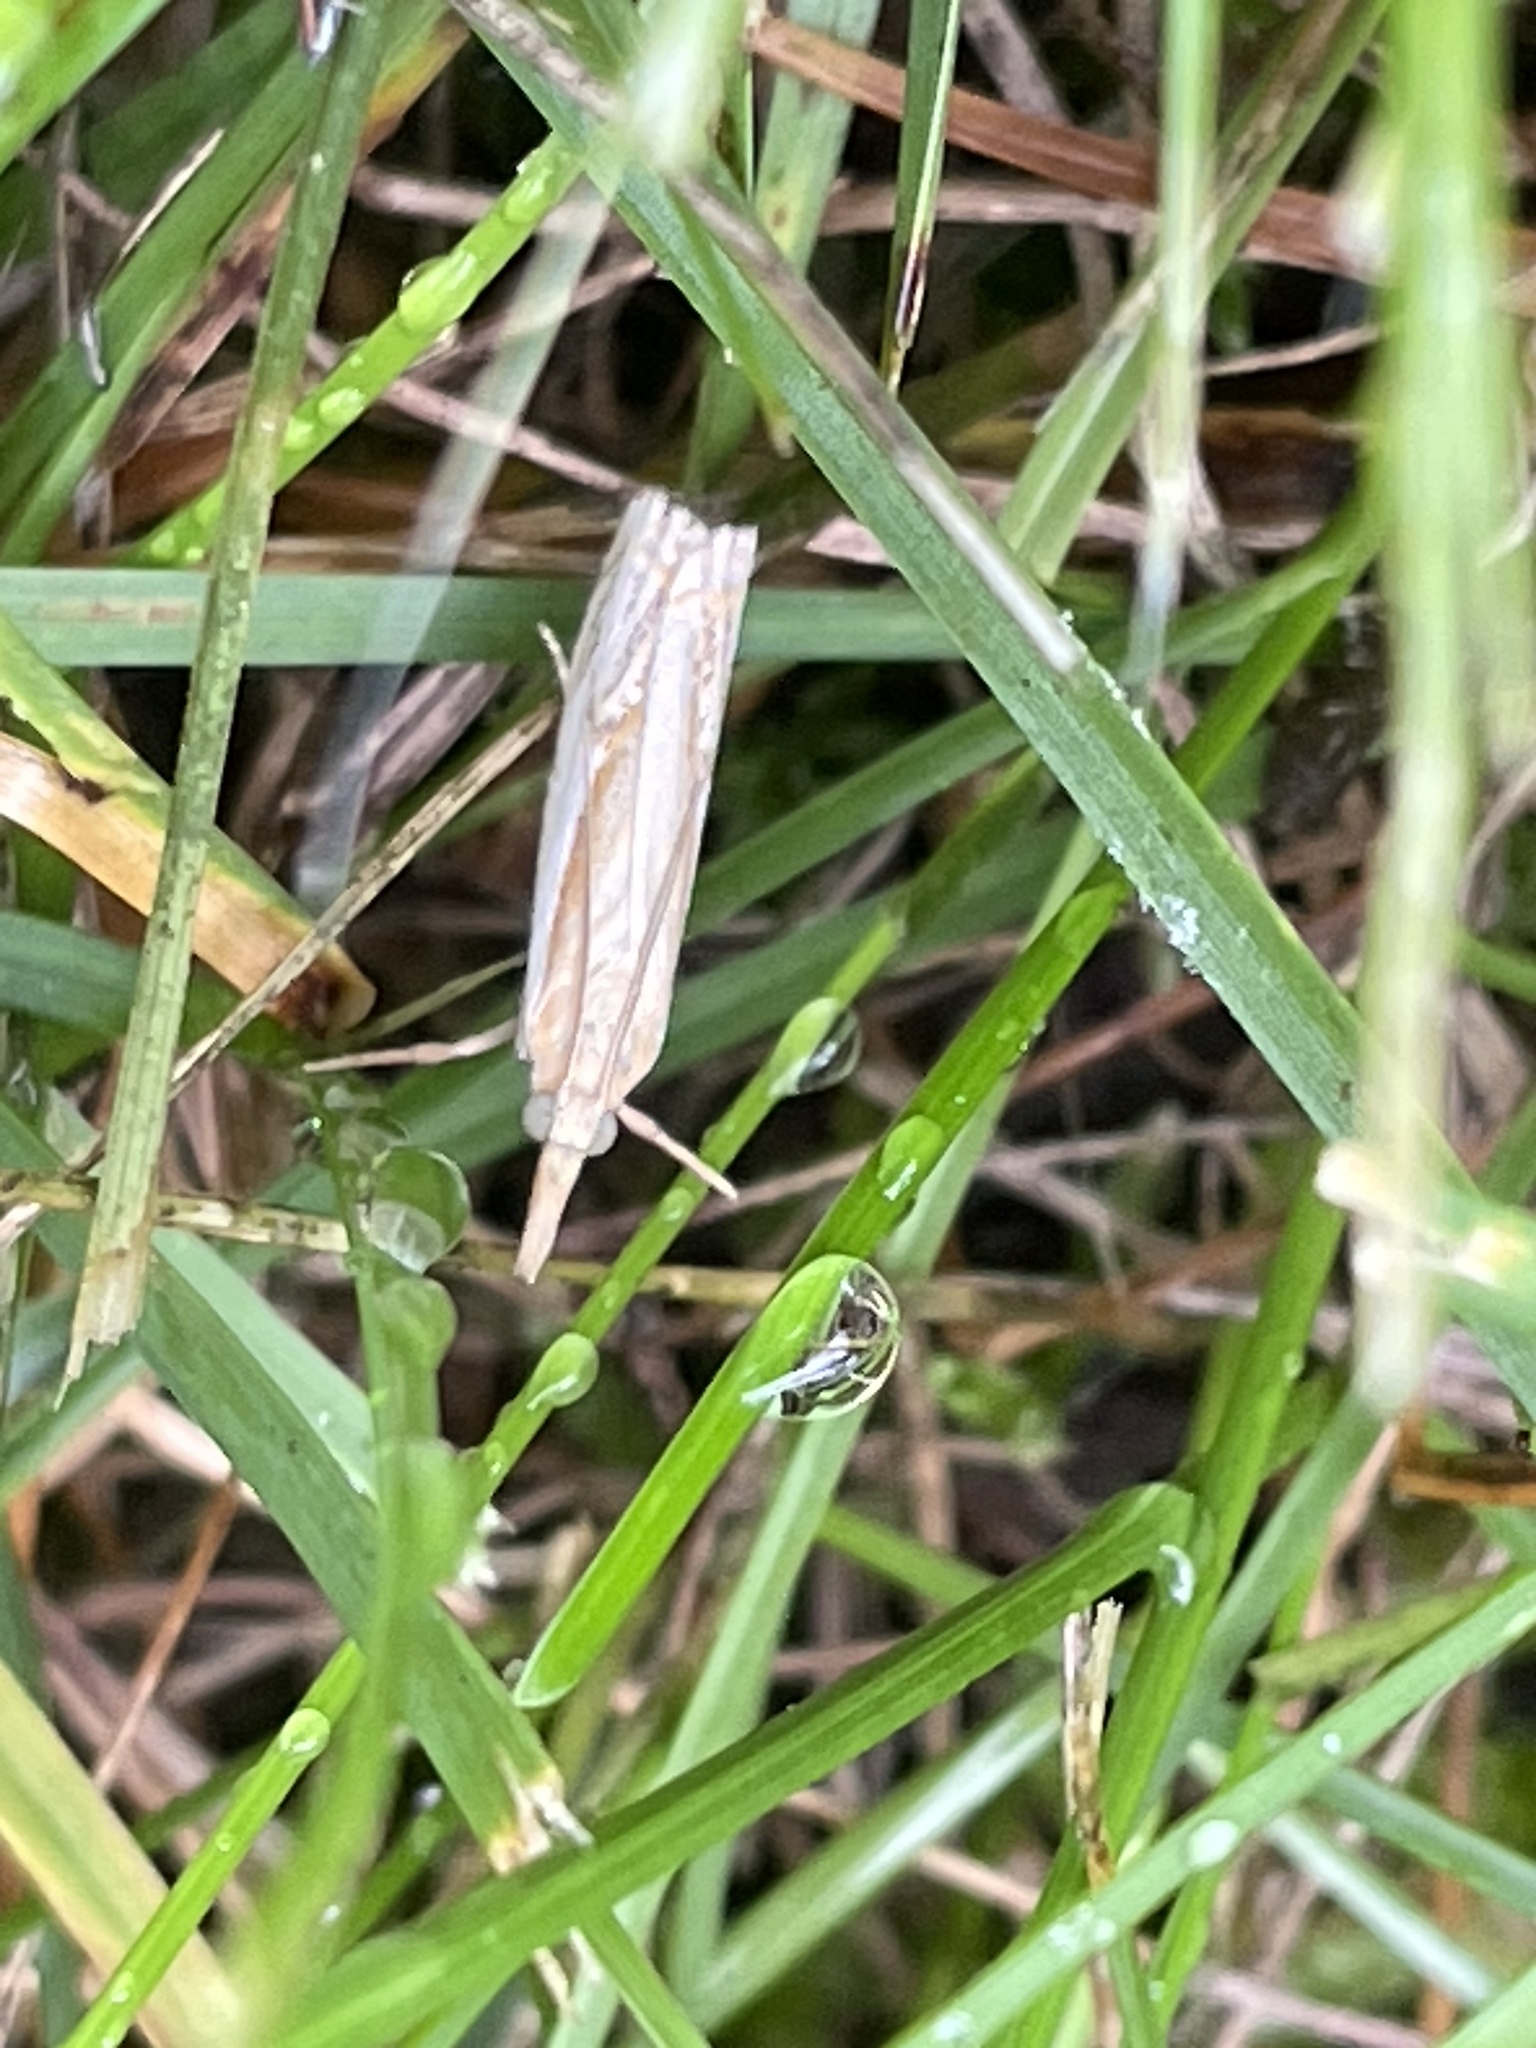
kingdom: Animalia
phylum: Arthropoda
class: Insecta
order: Lepidoptera
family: Crambidae
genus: Crambus
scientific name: Crambus agitatellus
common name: Double-banded grass-veneer
